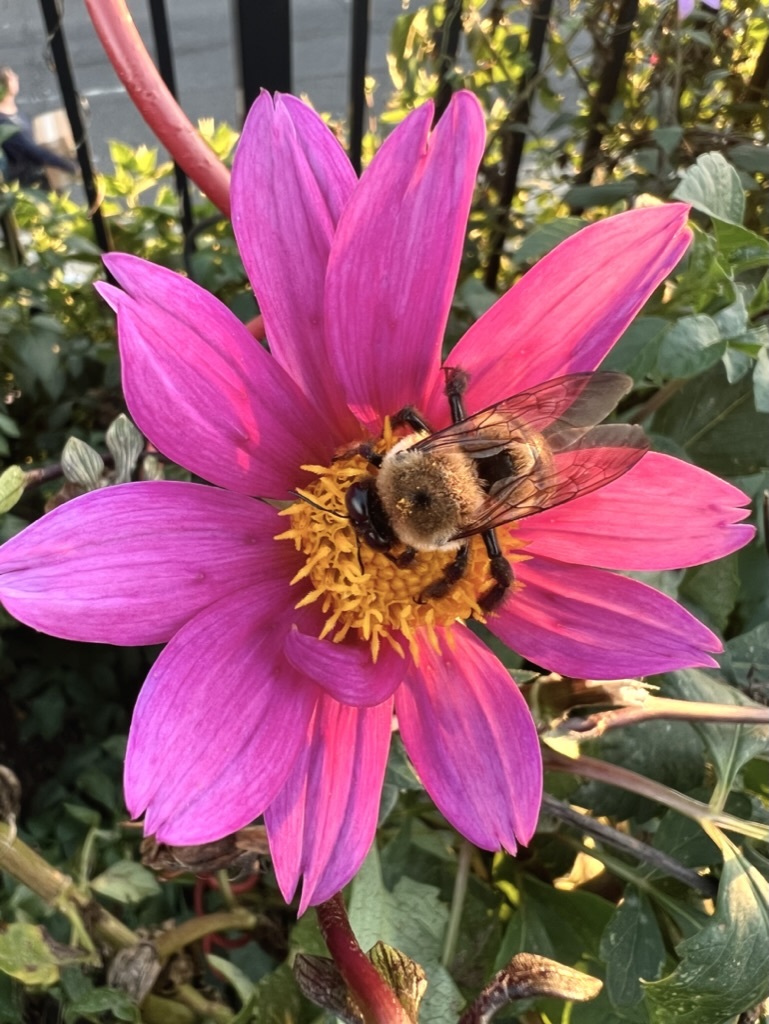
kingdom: Animalia
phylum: Arthropoda
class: Insecta
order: Hymenoptera
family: Apidae
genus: Xylocopa
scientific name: Xylocopa virginica
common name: Carpenter bee
